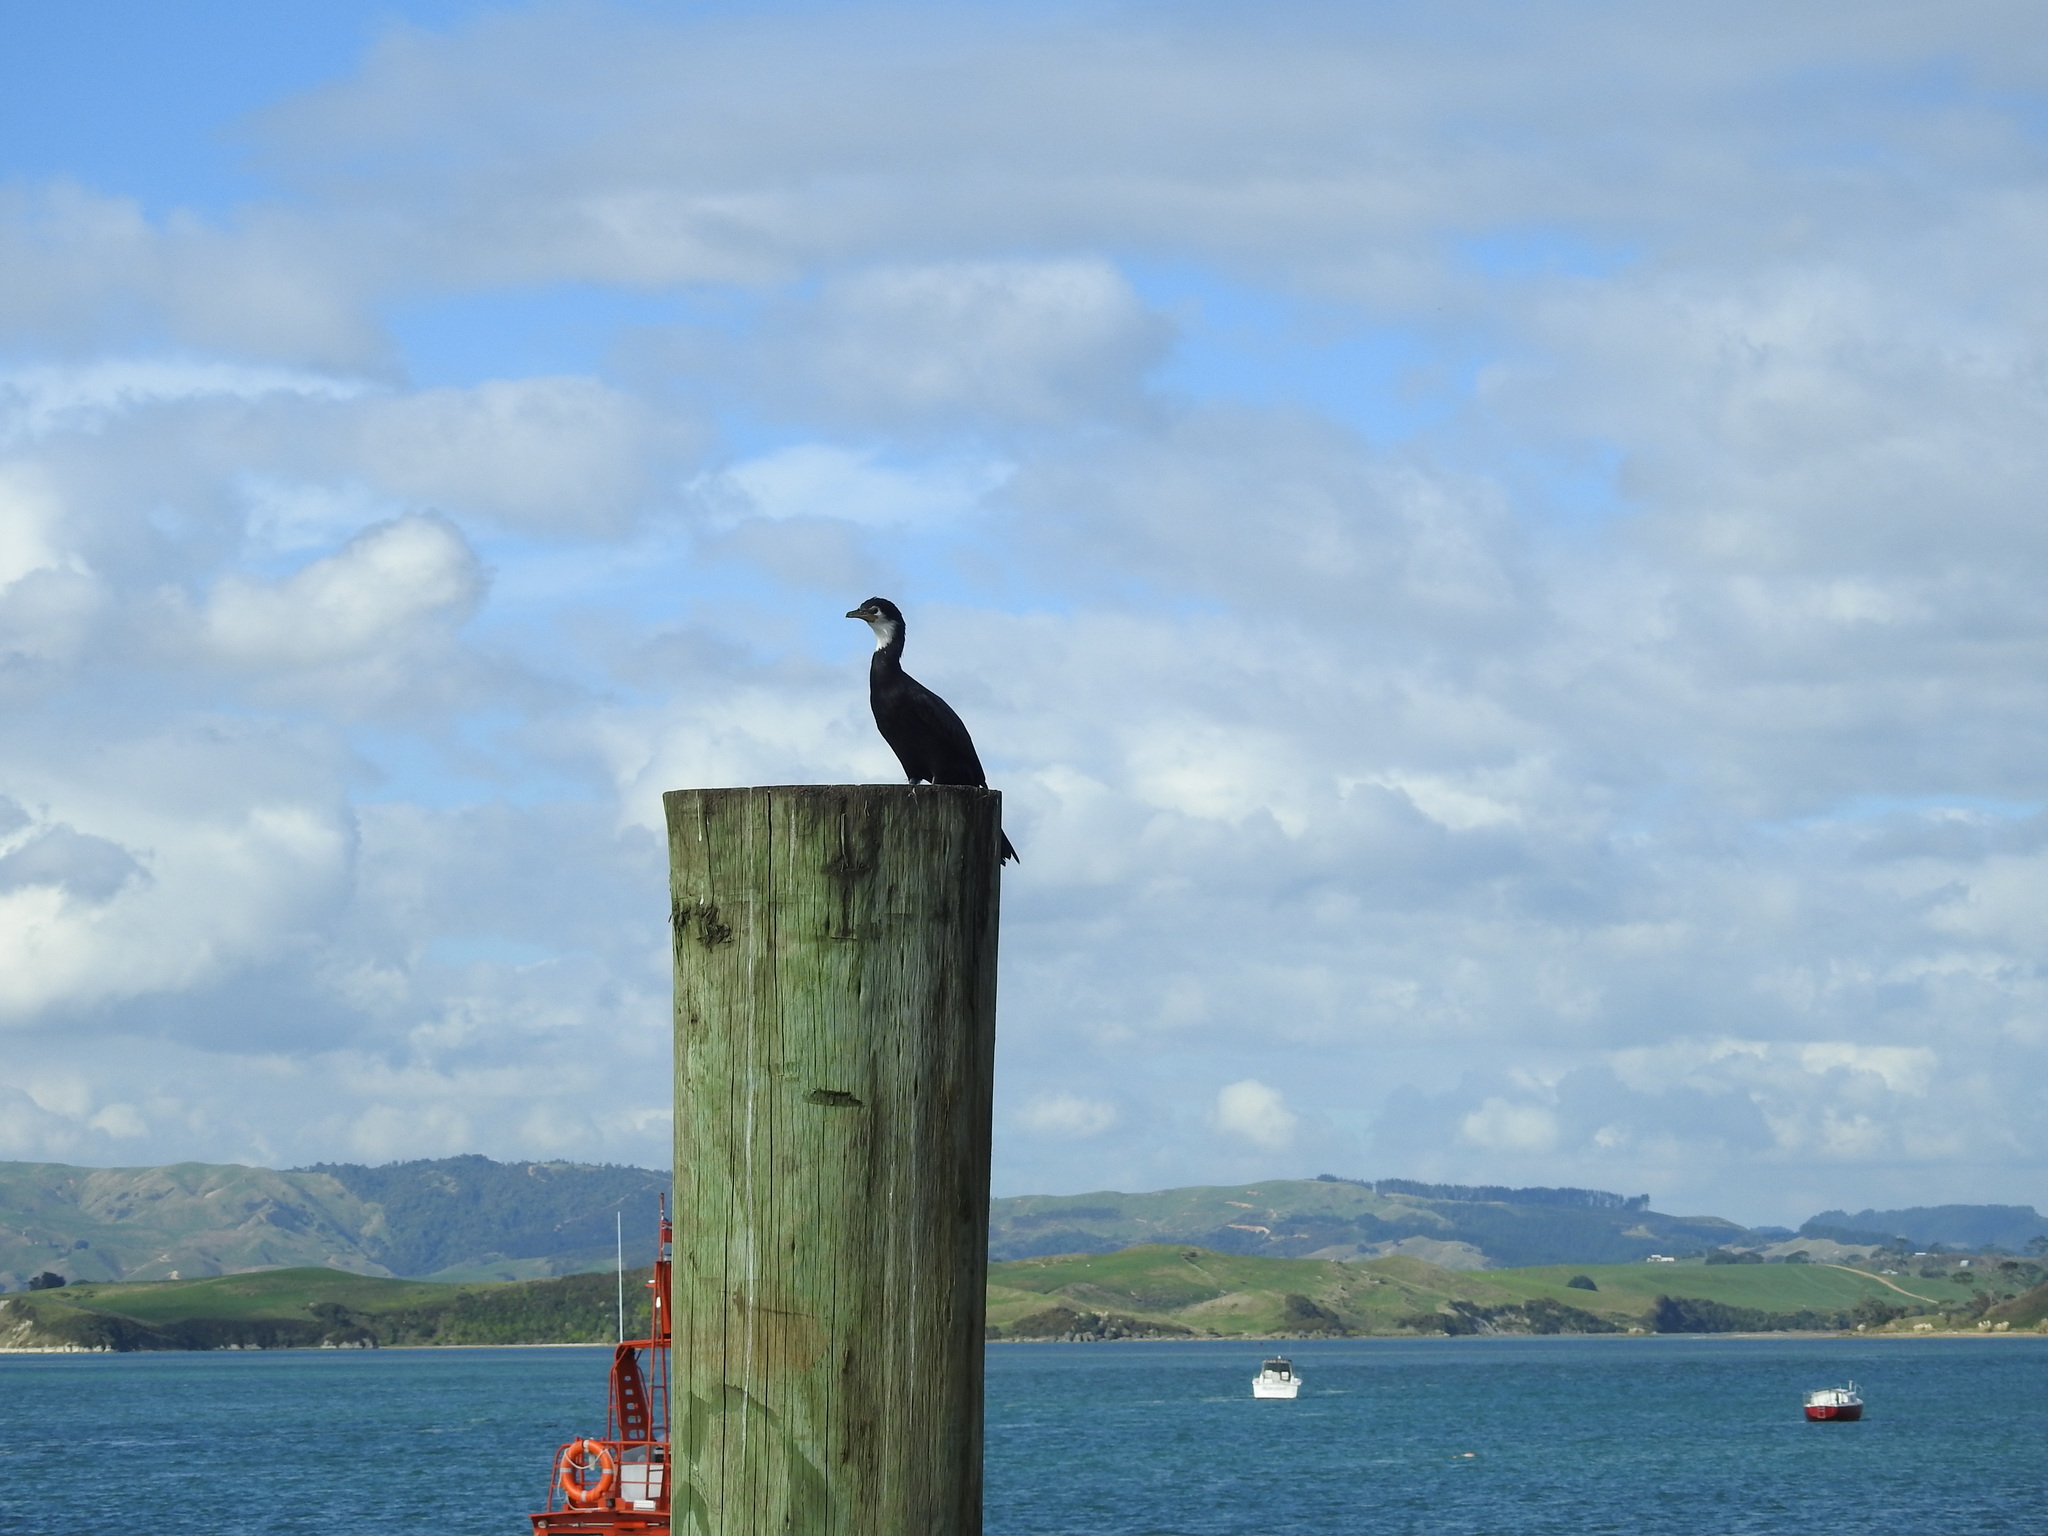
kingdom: Animalia
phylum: Chordata
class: Aves
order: Suliformes
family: Phalacrocoracidae
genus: Microcarbo
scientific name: Microcarbo melanoleucos
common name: Little pied cormorant
